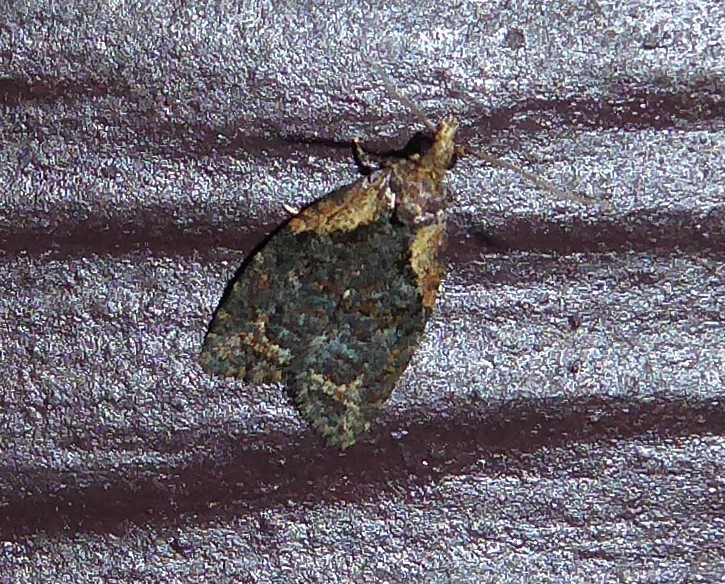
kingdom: Animalia
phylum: Arthropoda
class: Insecta
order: Lepidoptera
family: Tortricidae
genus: Capua
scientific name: Capua intractana
